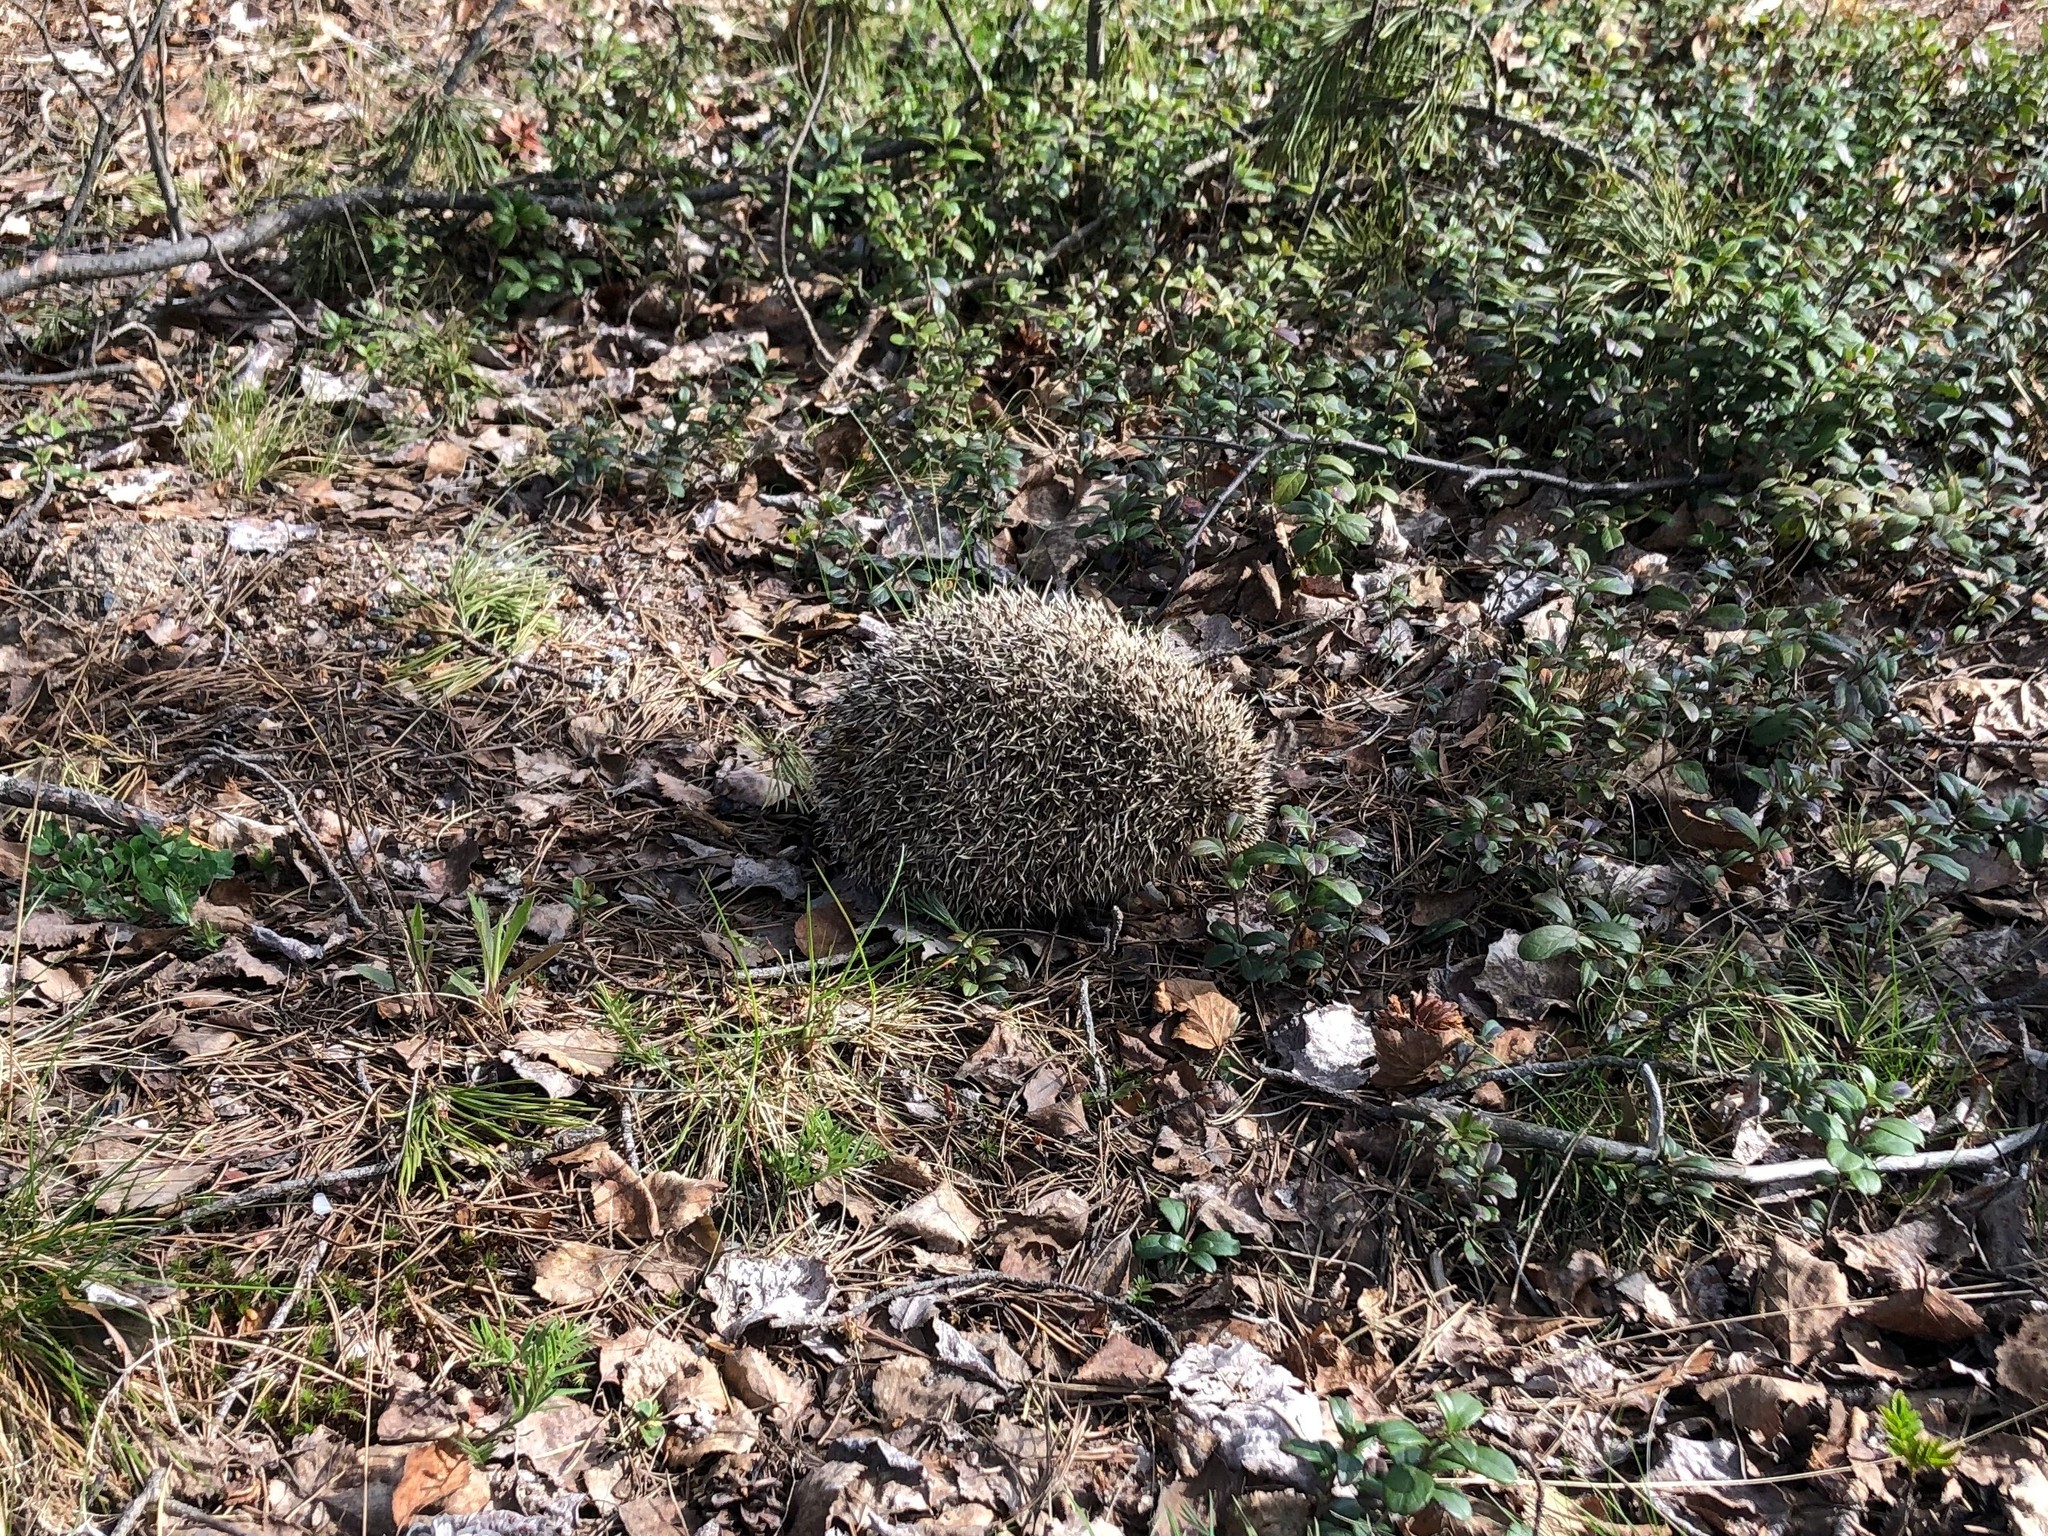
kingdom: Animalia
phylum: Chordata
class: Mammalia
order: Erinaceomorpha
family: Erinaceidae
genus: Erinaceus
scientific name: Erinaceus europaeus
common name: West european hedgehog
